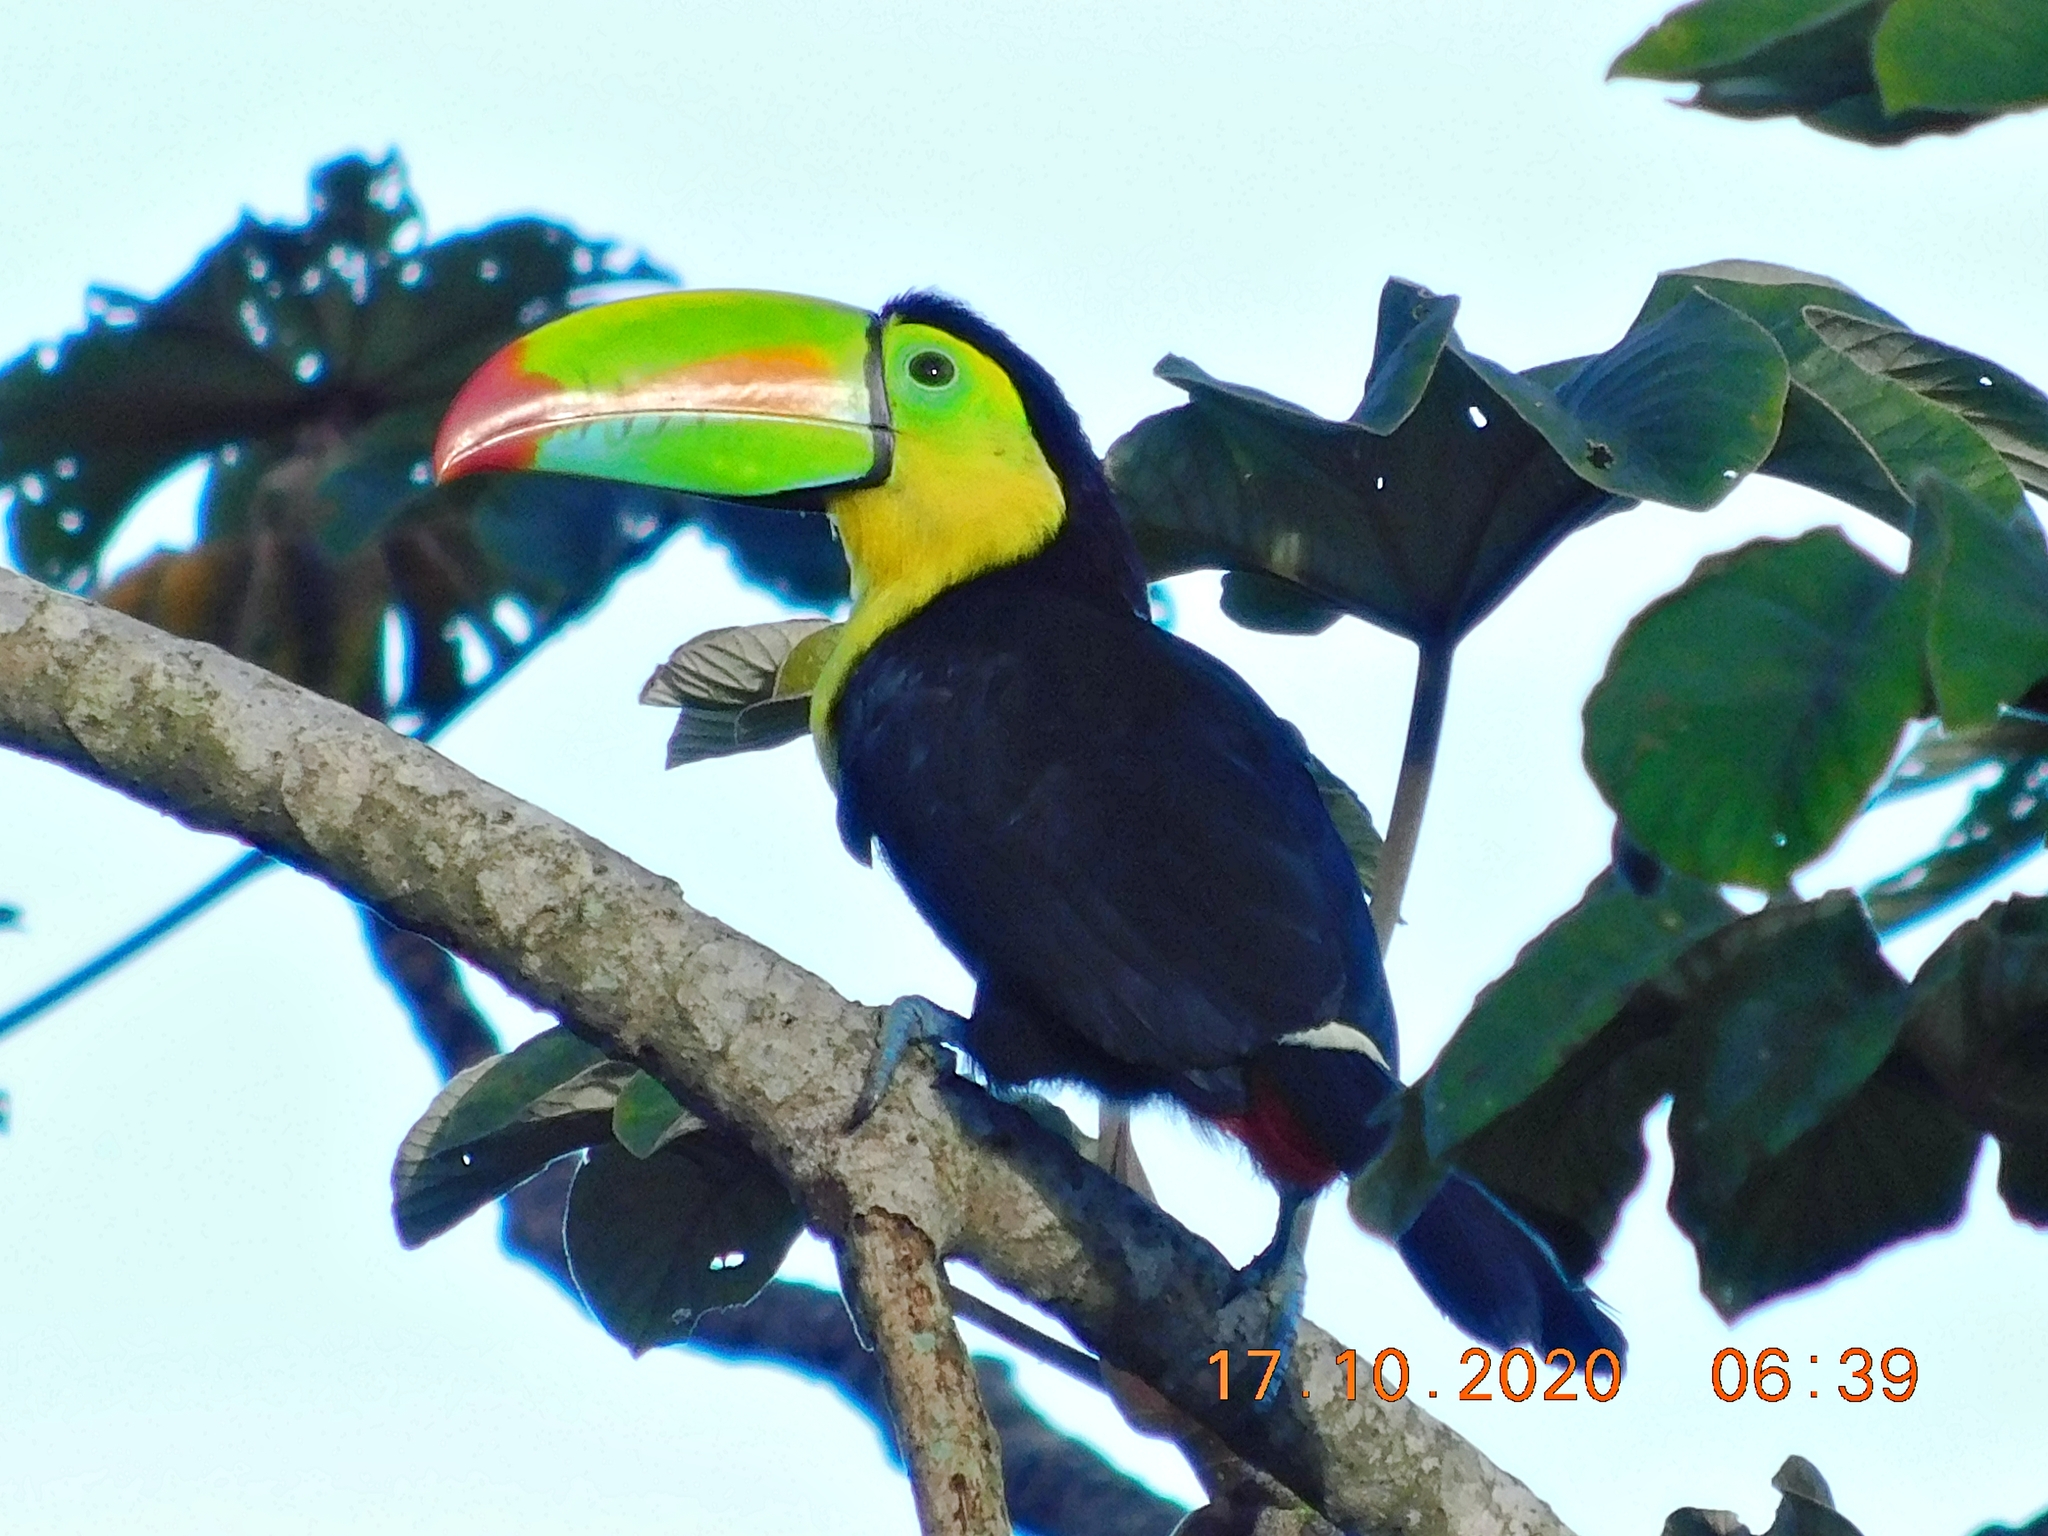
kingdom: Animalia
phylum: Chordata
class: Aves
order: Piciformes
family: Ramphastidae
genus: Ramphastos
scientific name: Ramphastos sulfuratus
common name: Keel-billed toucan
